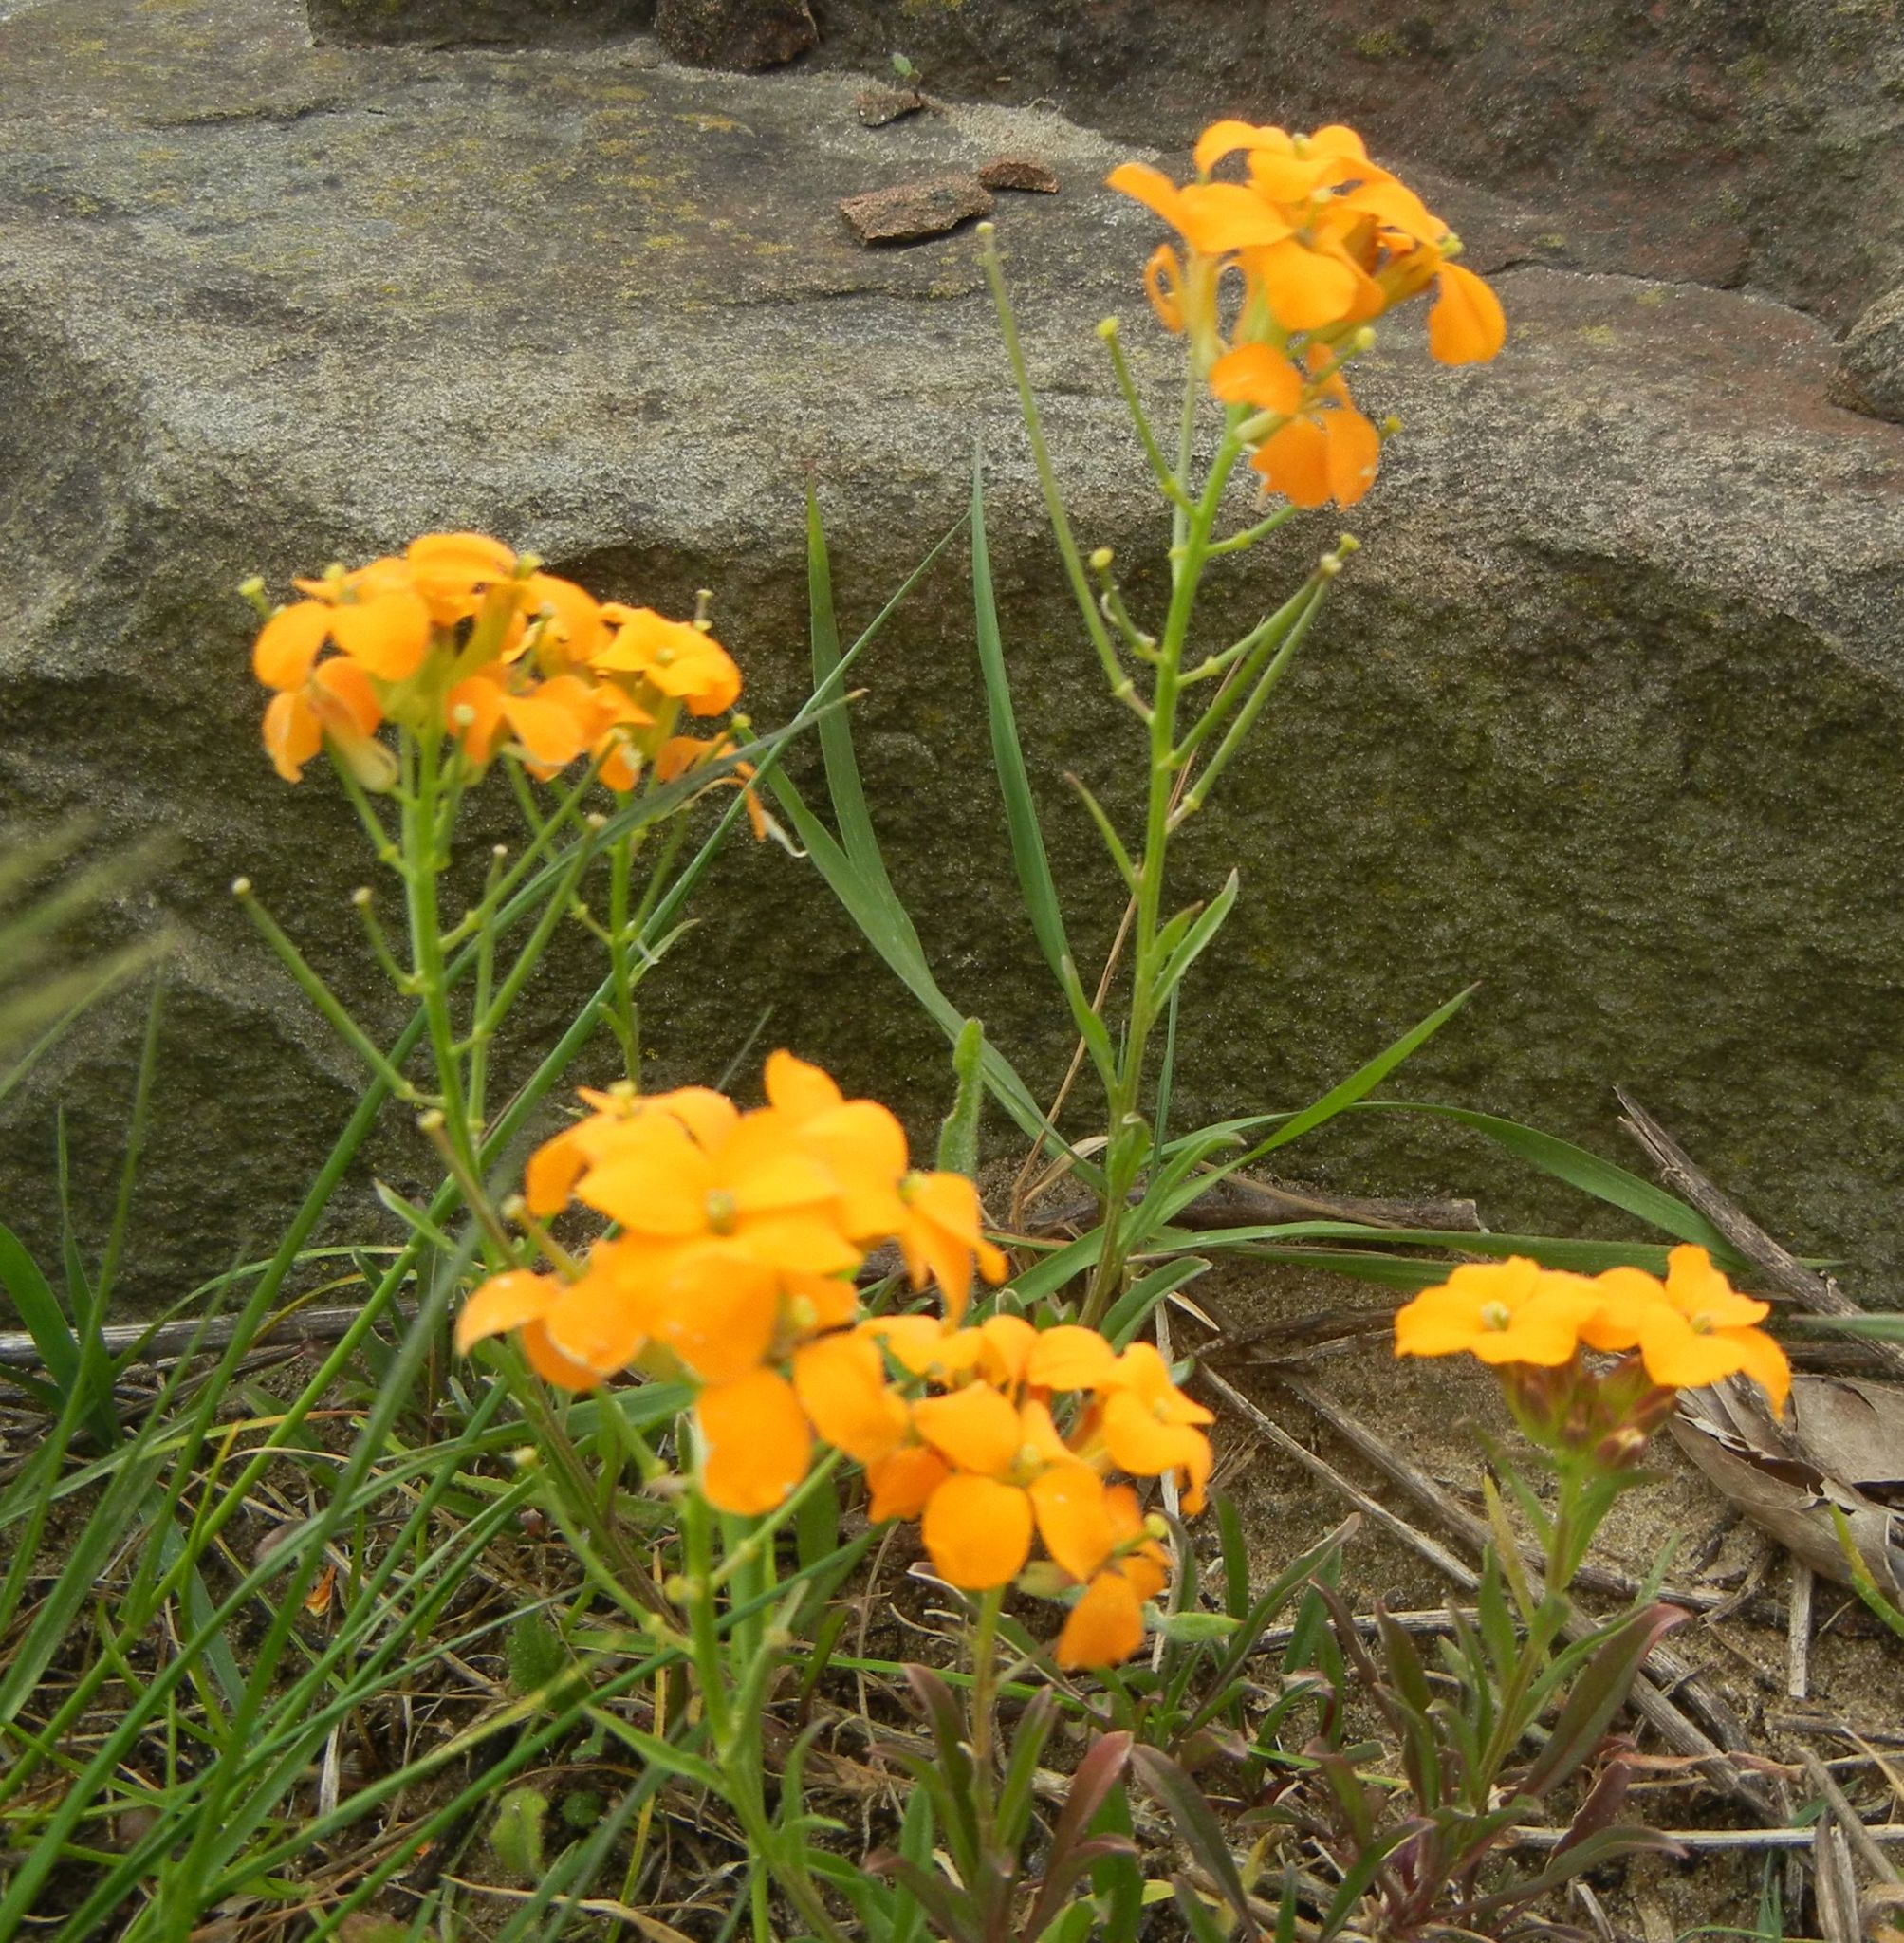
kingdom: Plantae
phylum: Tracheophyta
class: Magnoliopsida
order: Brassicales
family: Brassicaceae
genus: Erysimum
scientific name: Erysimum marshallii
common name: Siberian wallflower
